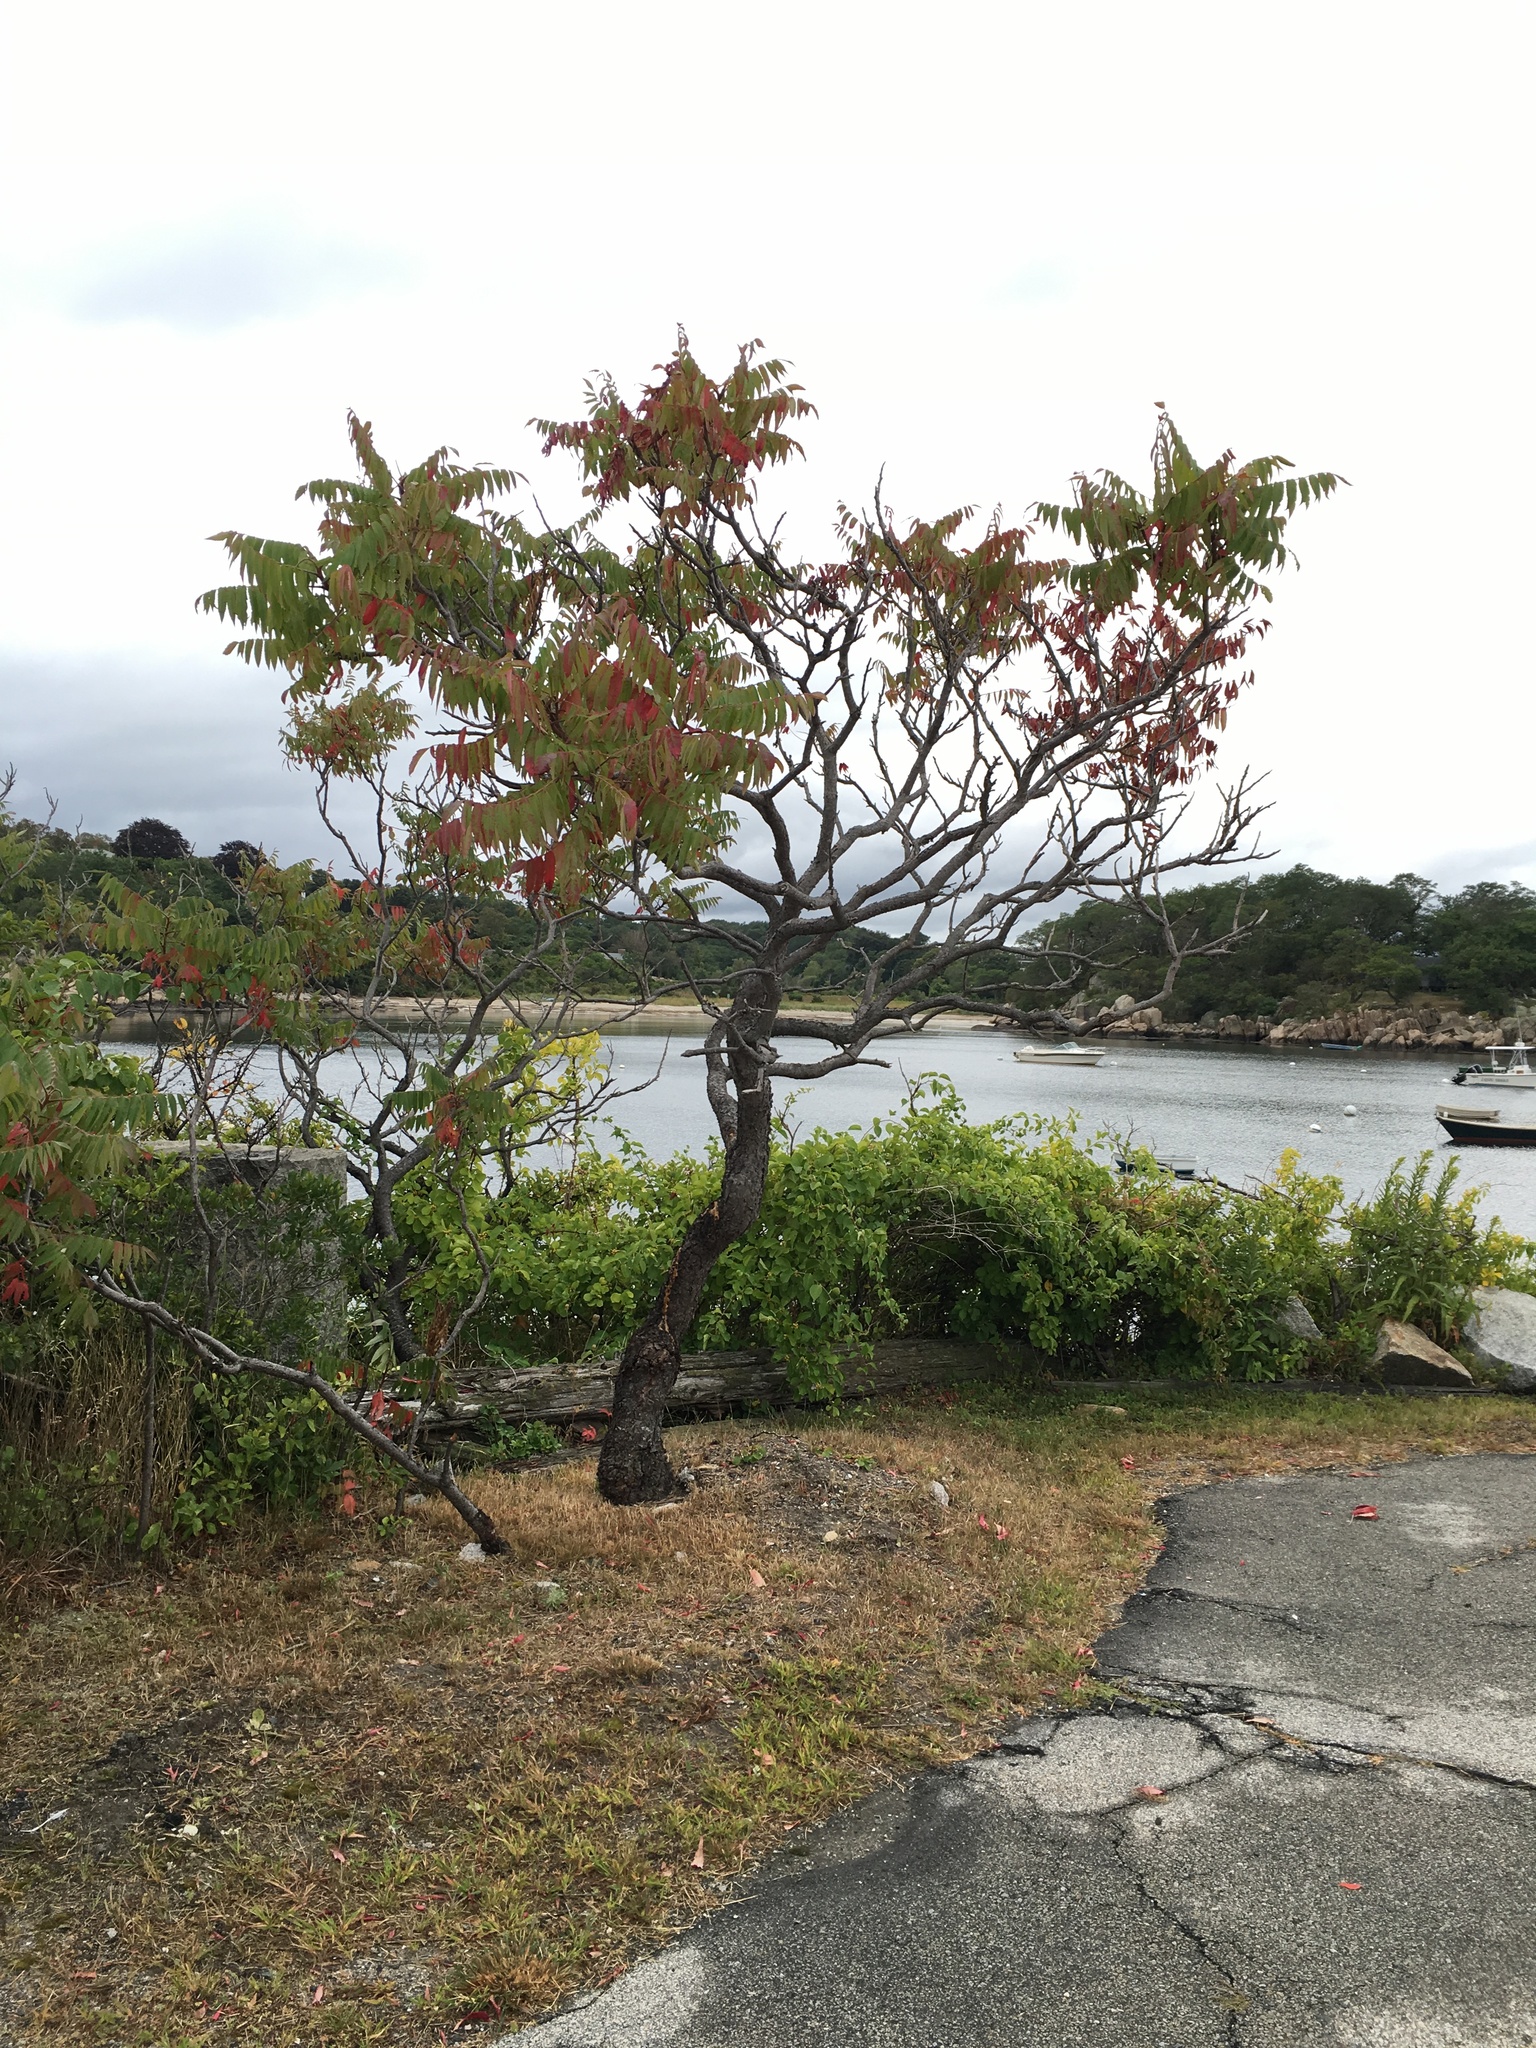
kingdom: Plantae
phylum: Tracheophyta
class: Magnoliopsida
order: Sapindales
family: Anacardiaceae
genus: Rhus
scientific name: Rhus typhina
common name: Staghorn sumac
